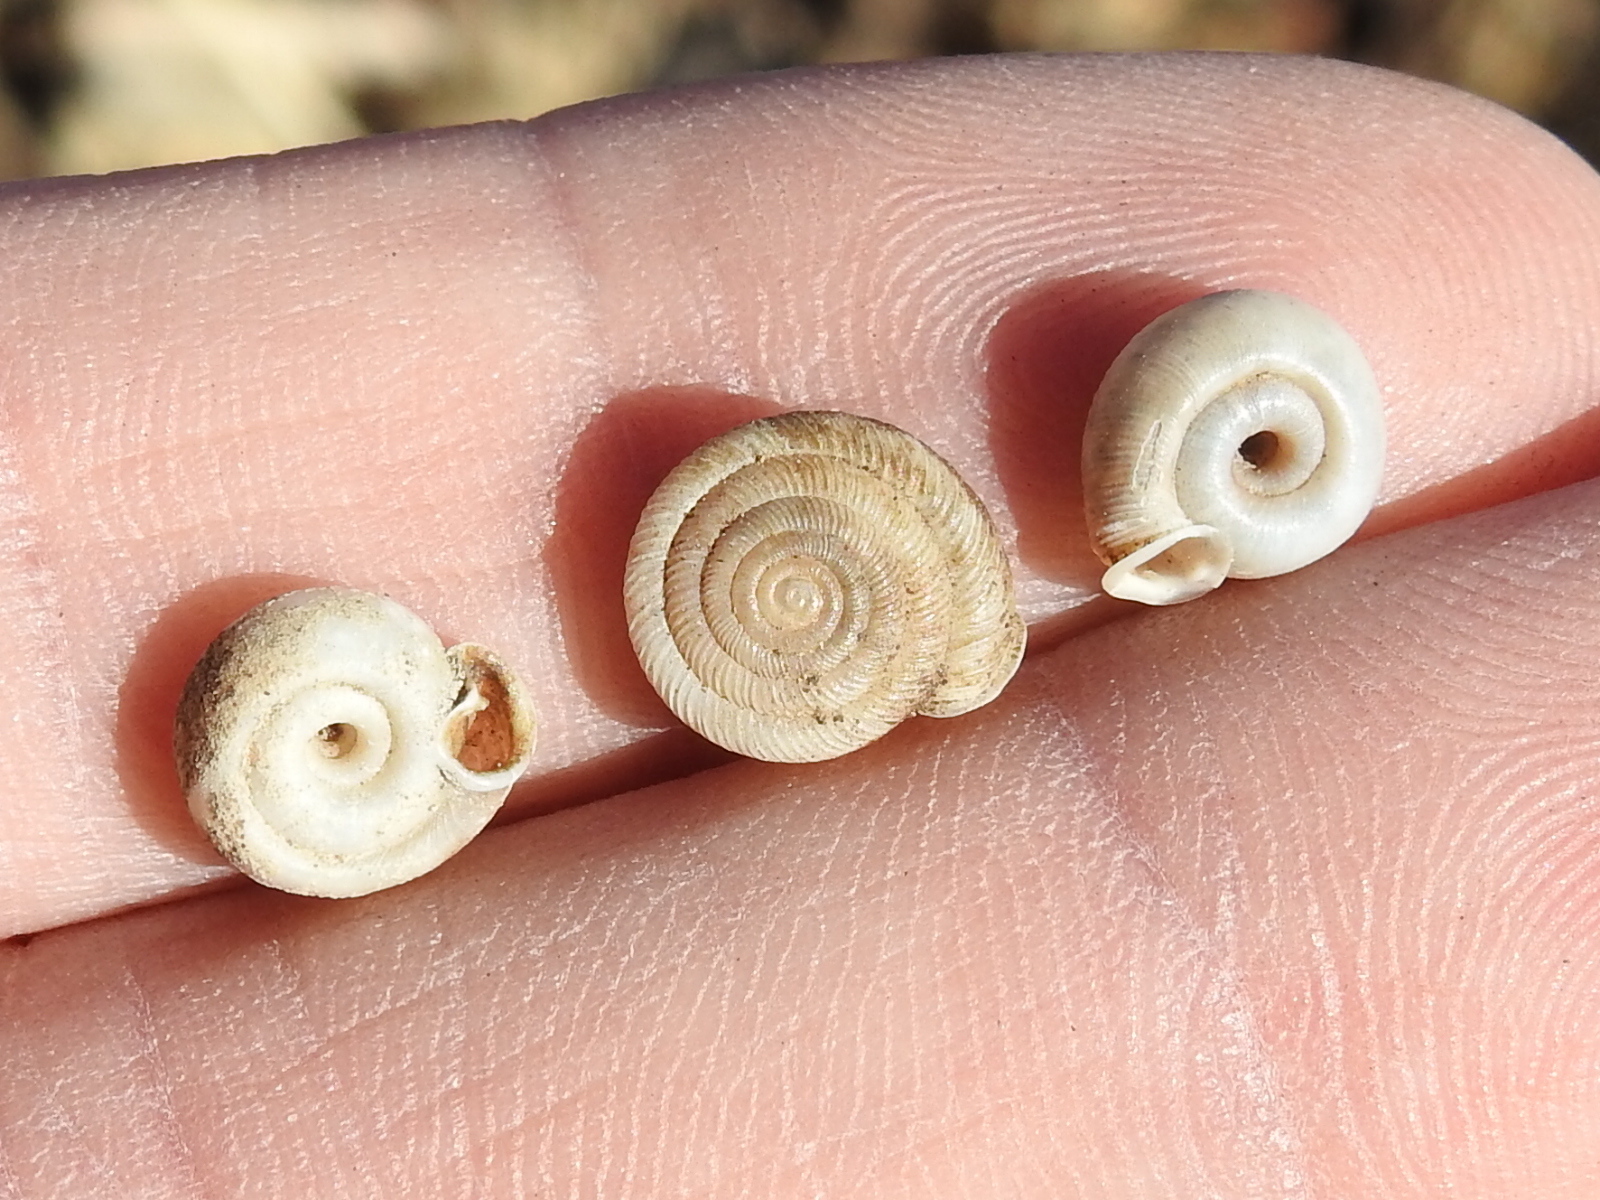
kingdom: Animalia
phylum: Mollusca
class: Gastropoda
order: Stylommatophora
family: Polygyridae
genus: Polygyra
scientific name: Polygyra cereolus
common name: Southern flatcone snail
